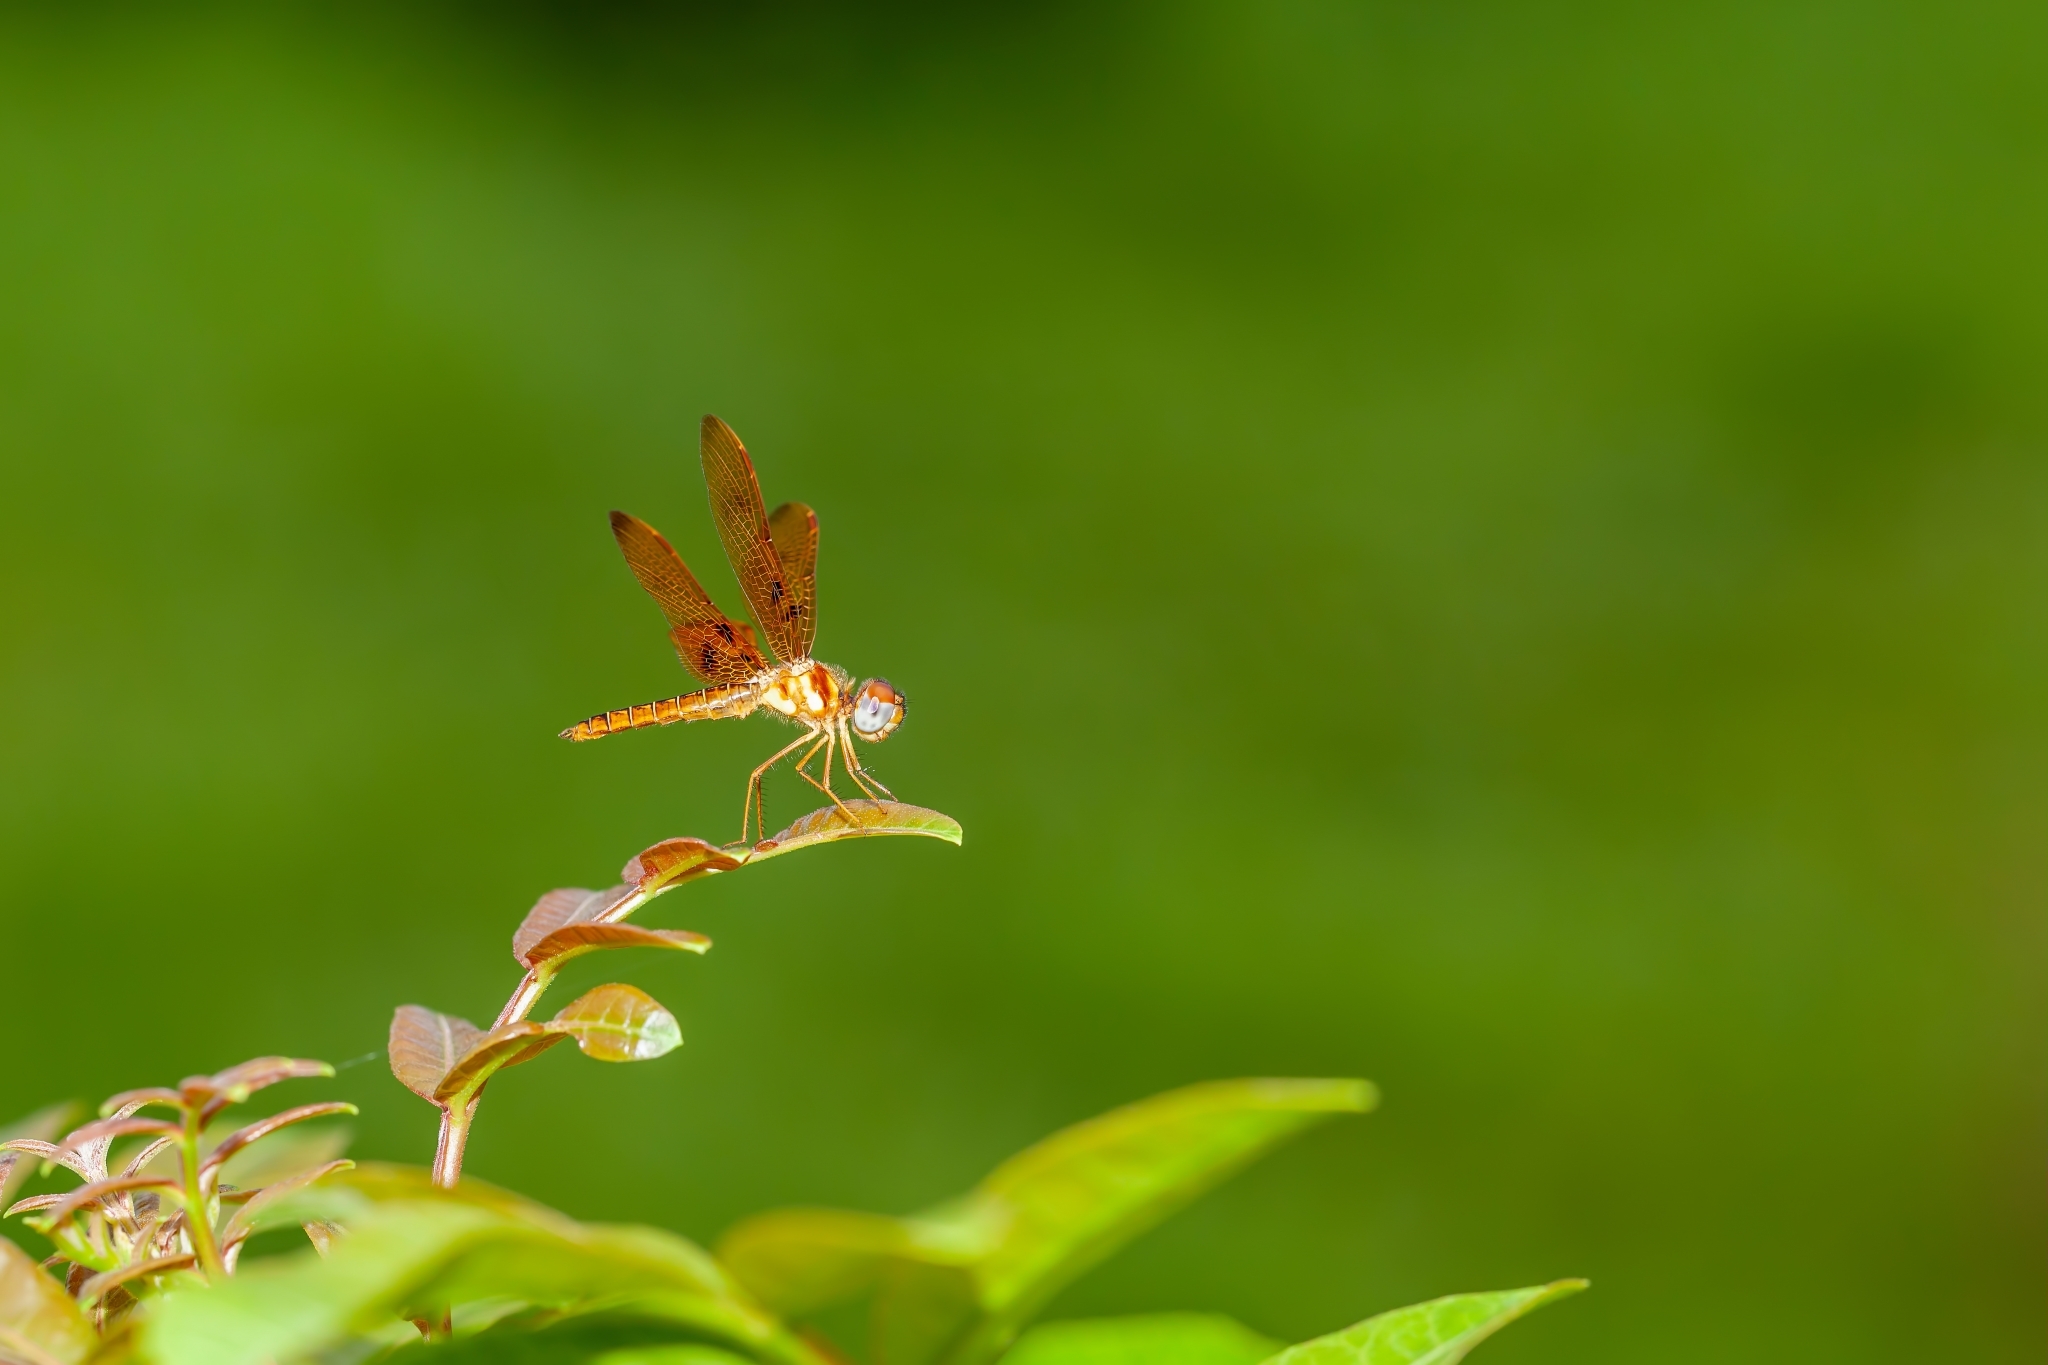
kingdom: Animalia
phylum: Arthropoda
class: Insecta
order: Odonata
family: Libellulidae
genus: Perithemis
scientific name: Perithemis tenera
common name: Eastern amberwing
